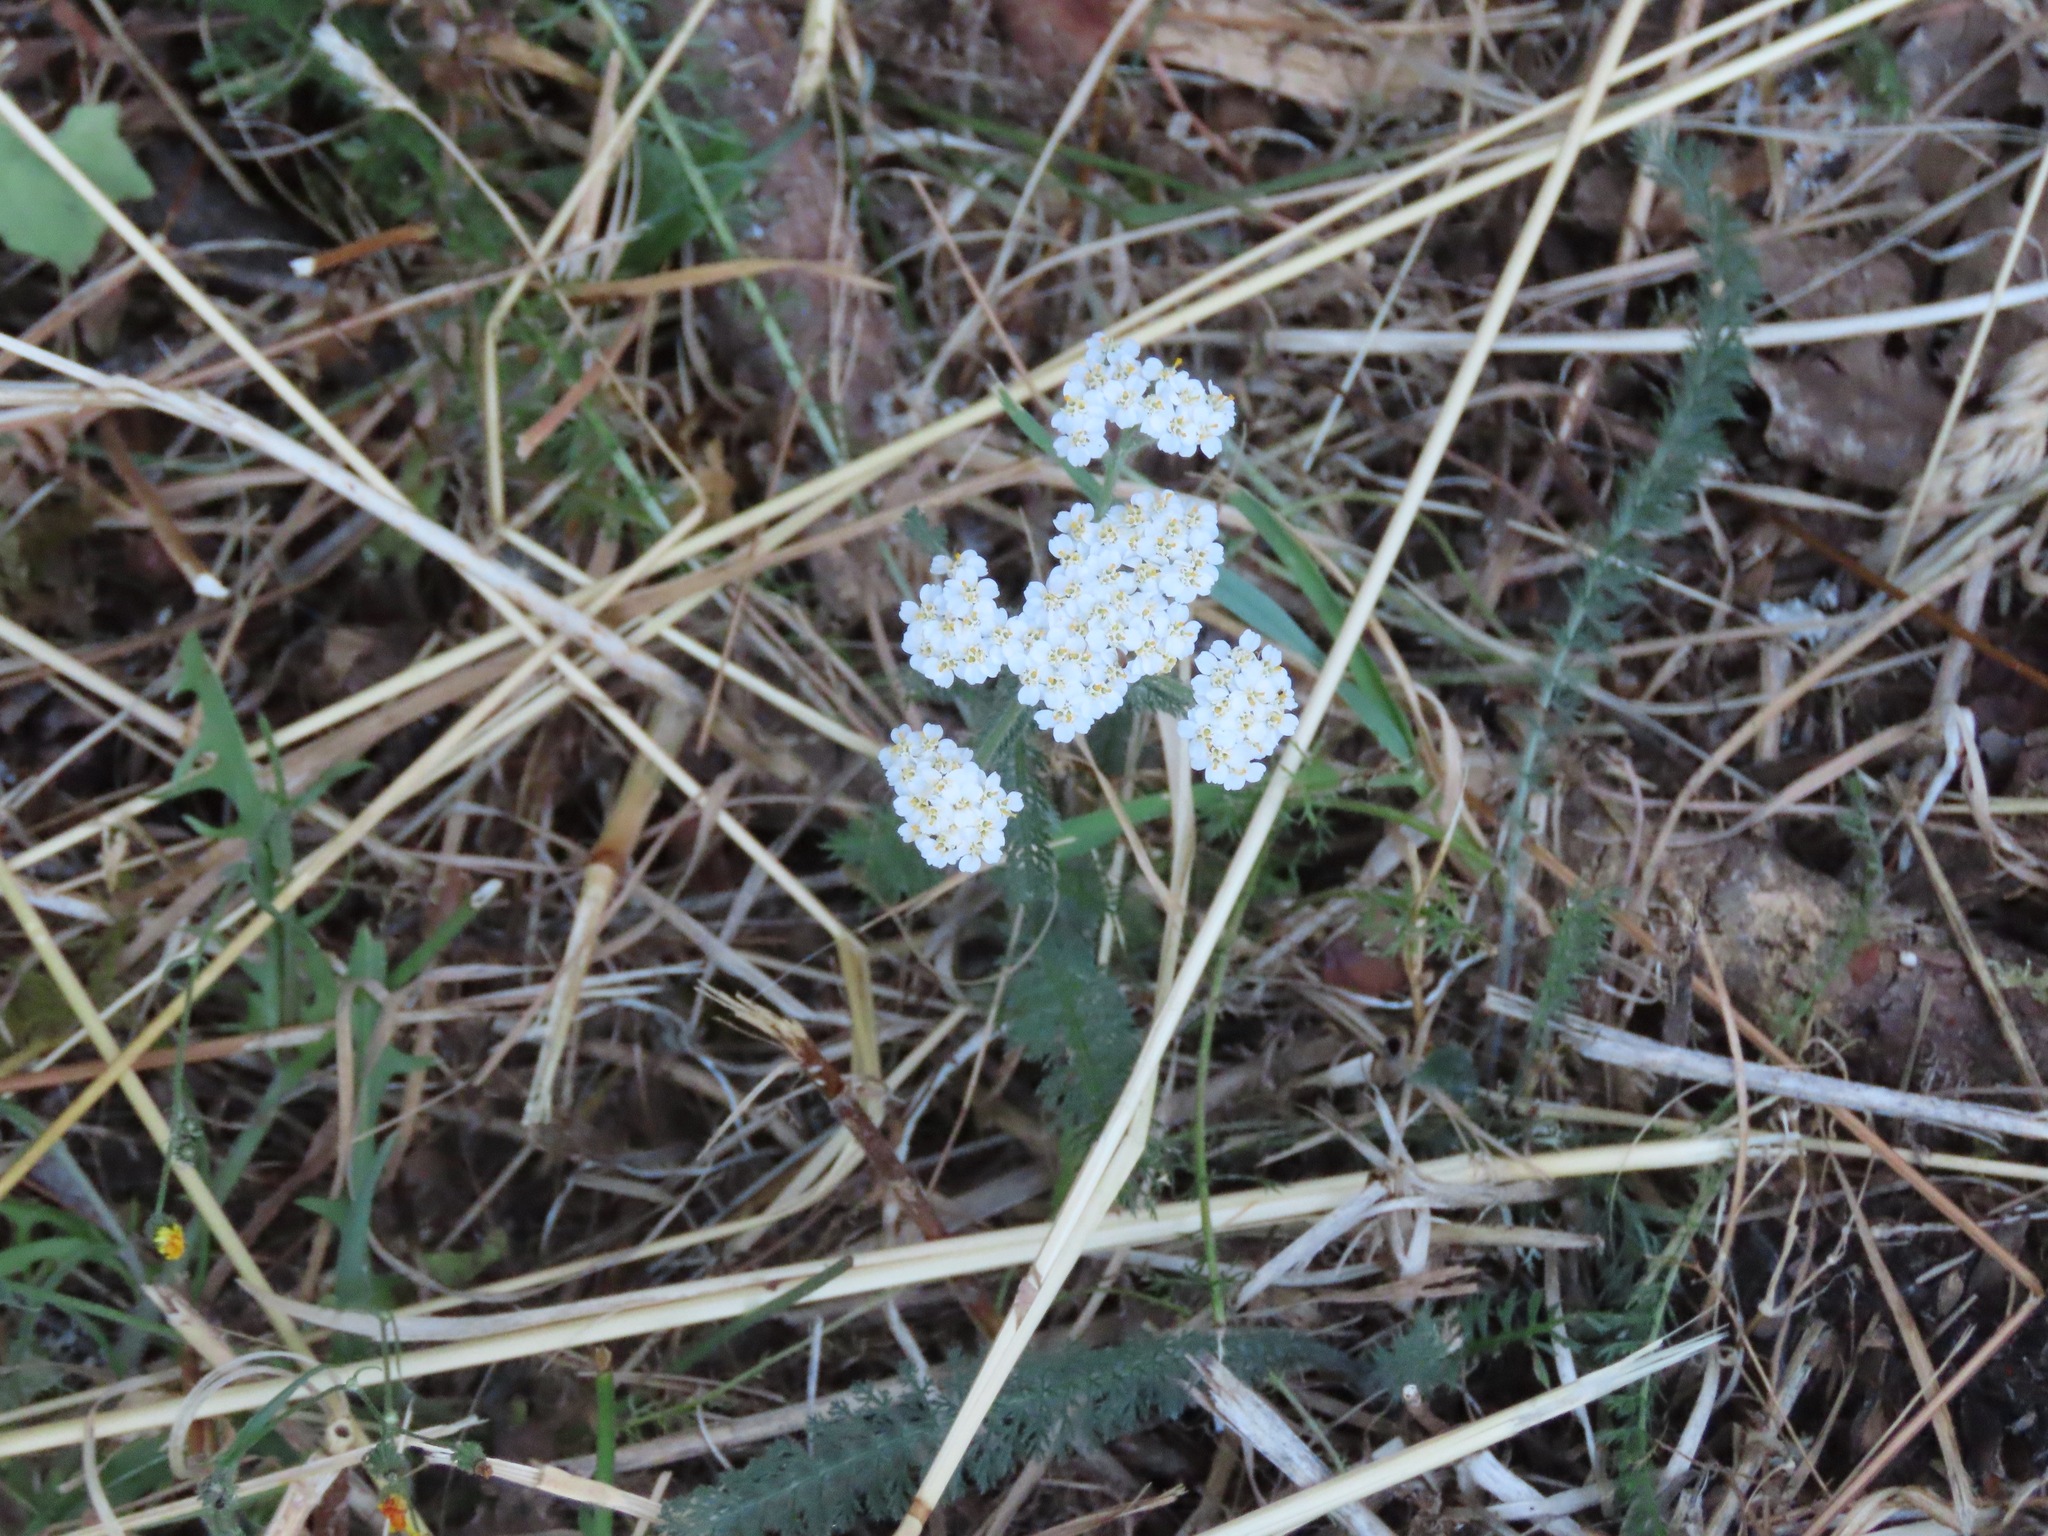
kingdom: Plantae
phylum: Tracheophyta
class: Magnoliopsida
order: Asterales
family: Asteraceae
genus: Achillea
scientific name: Achillea millefolium
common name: Yarrow
